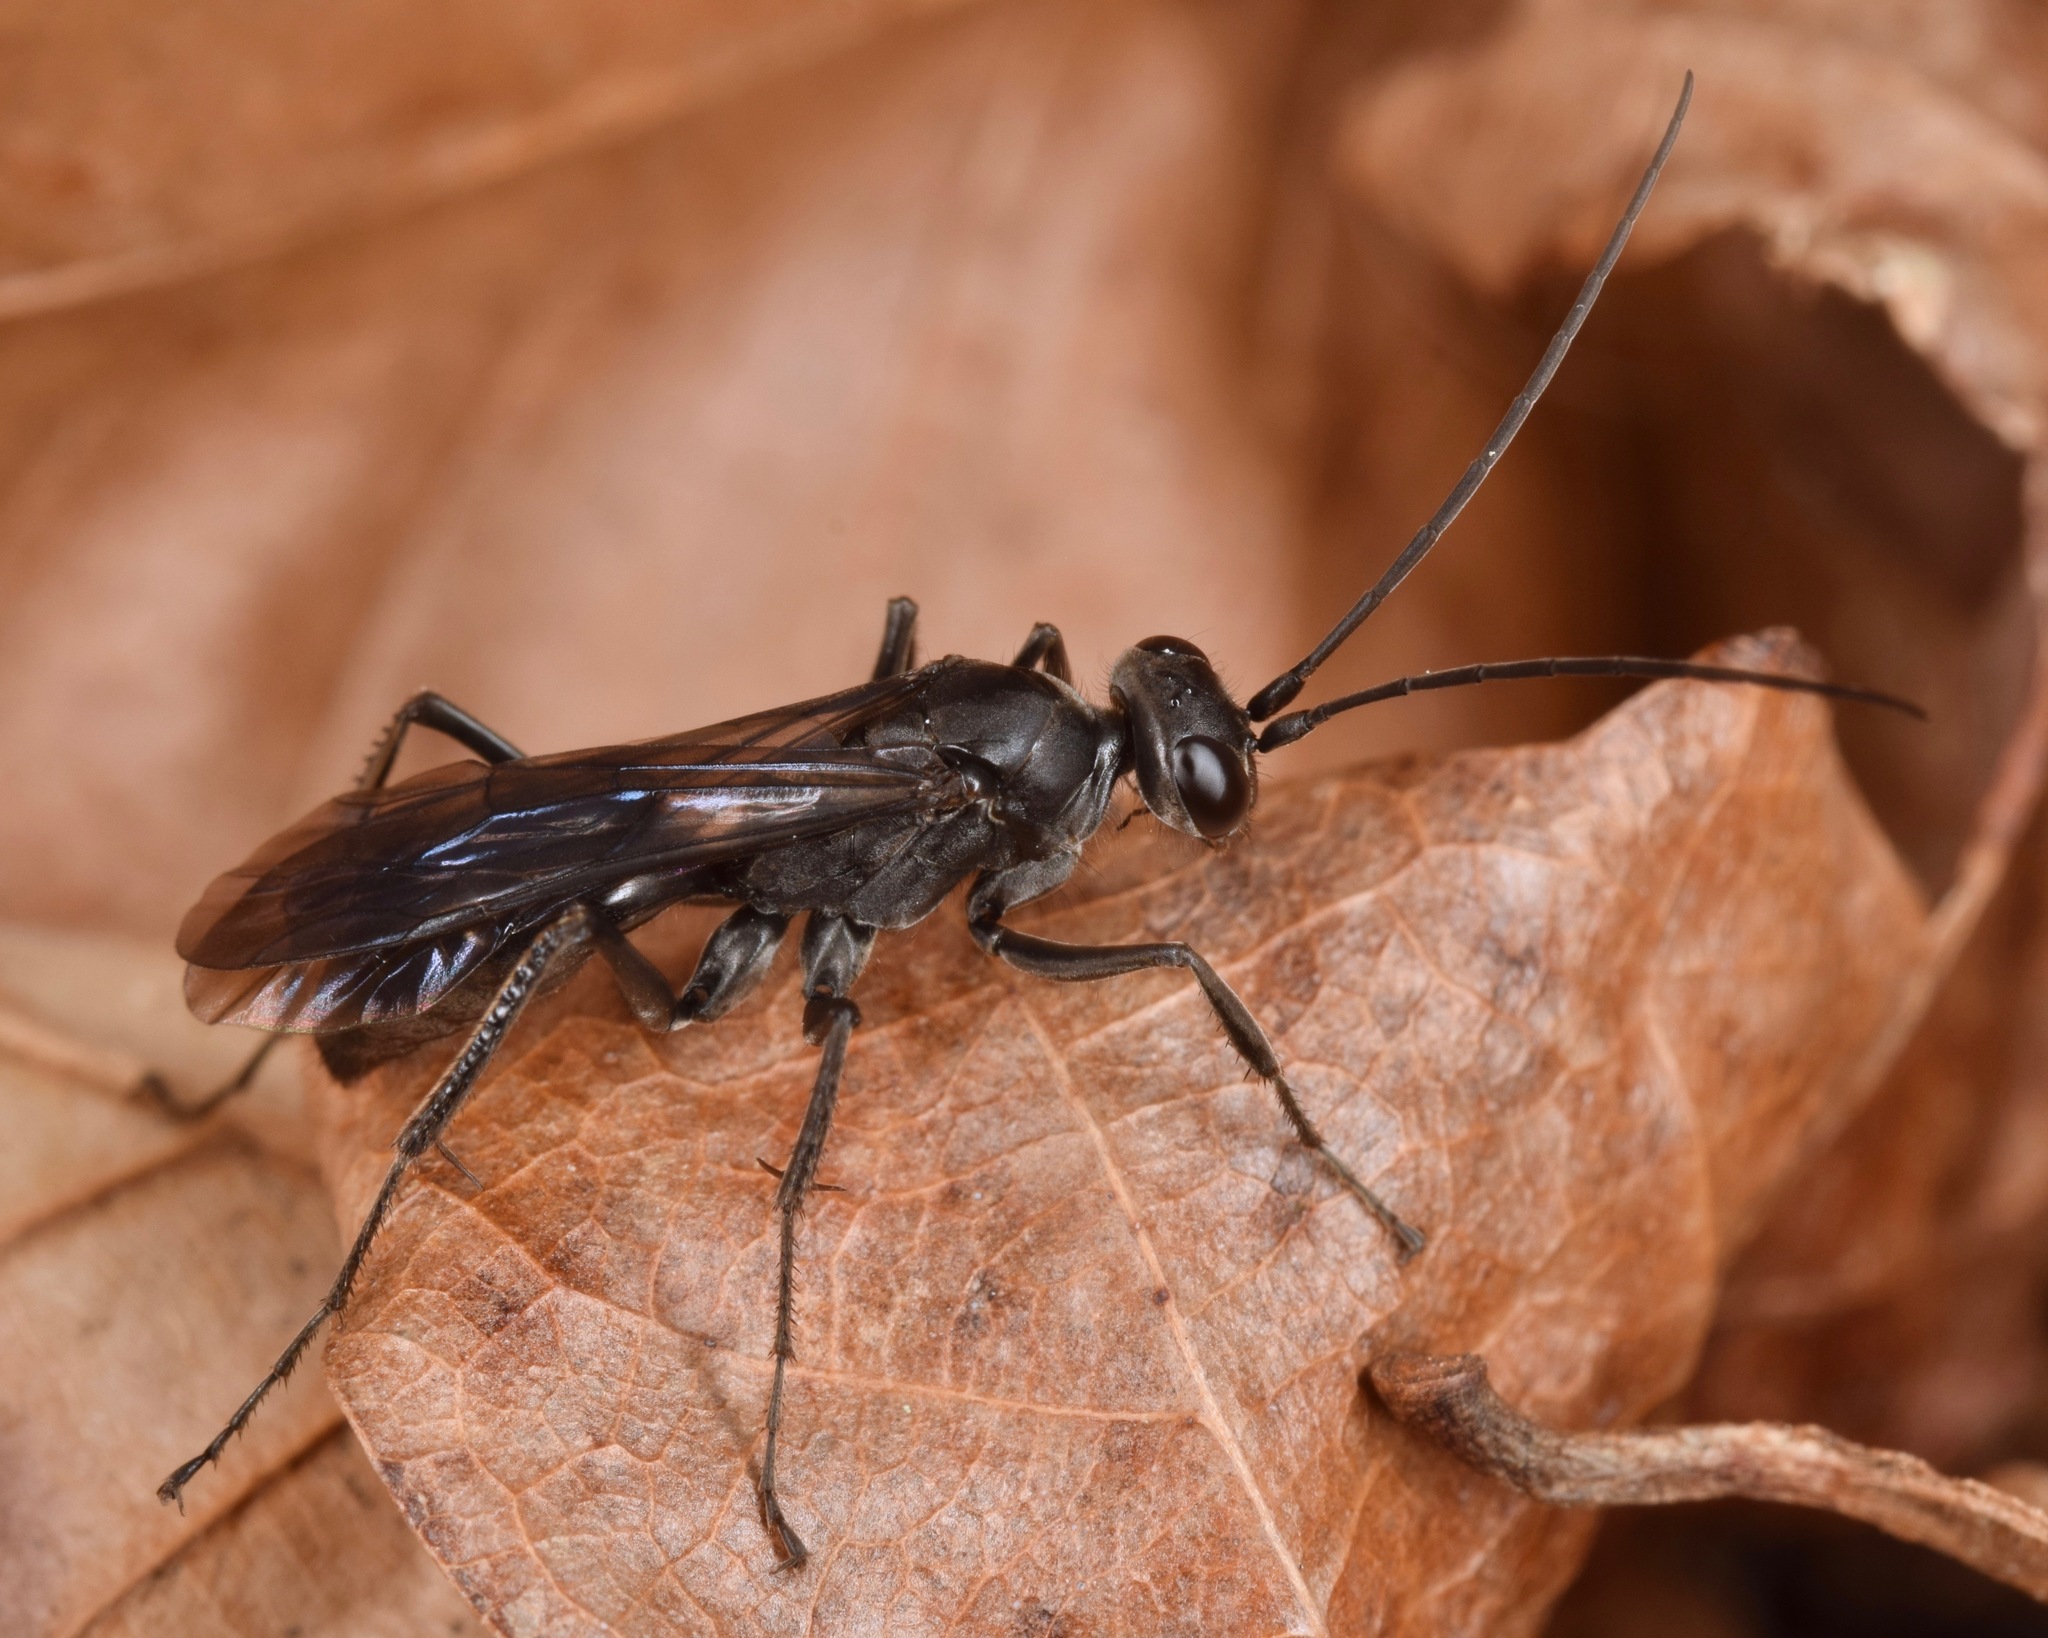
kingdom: Animalia
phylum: Arthropoda
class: Insecta
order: Hymenoptera
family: Pompilidae
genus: Priocnemis
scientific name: Priocnemis minorata
